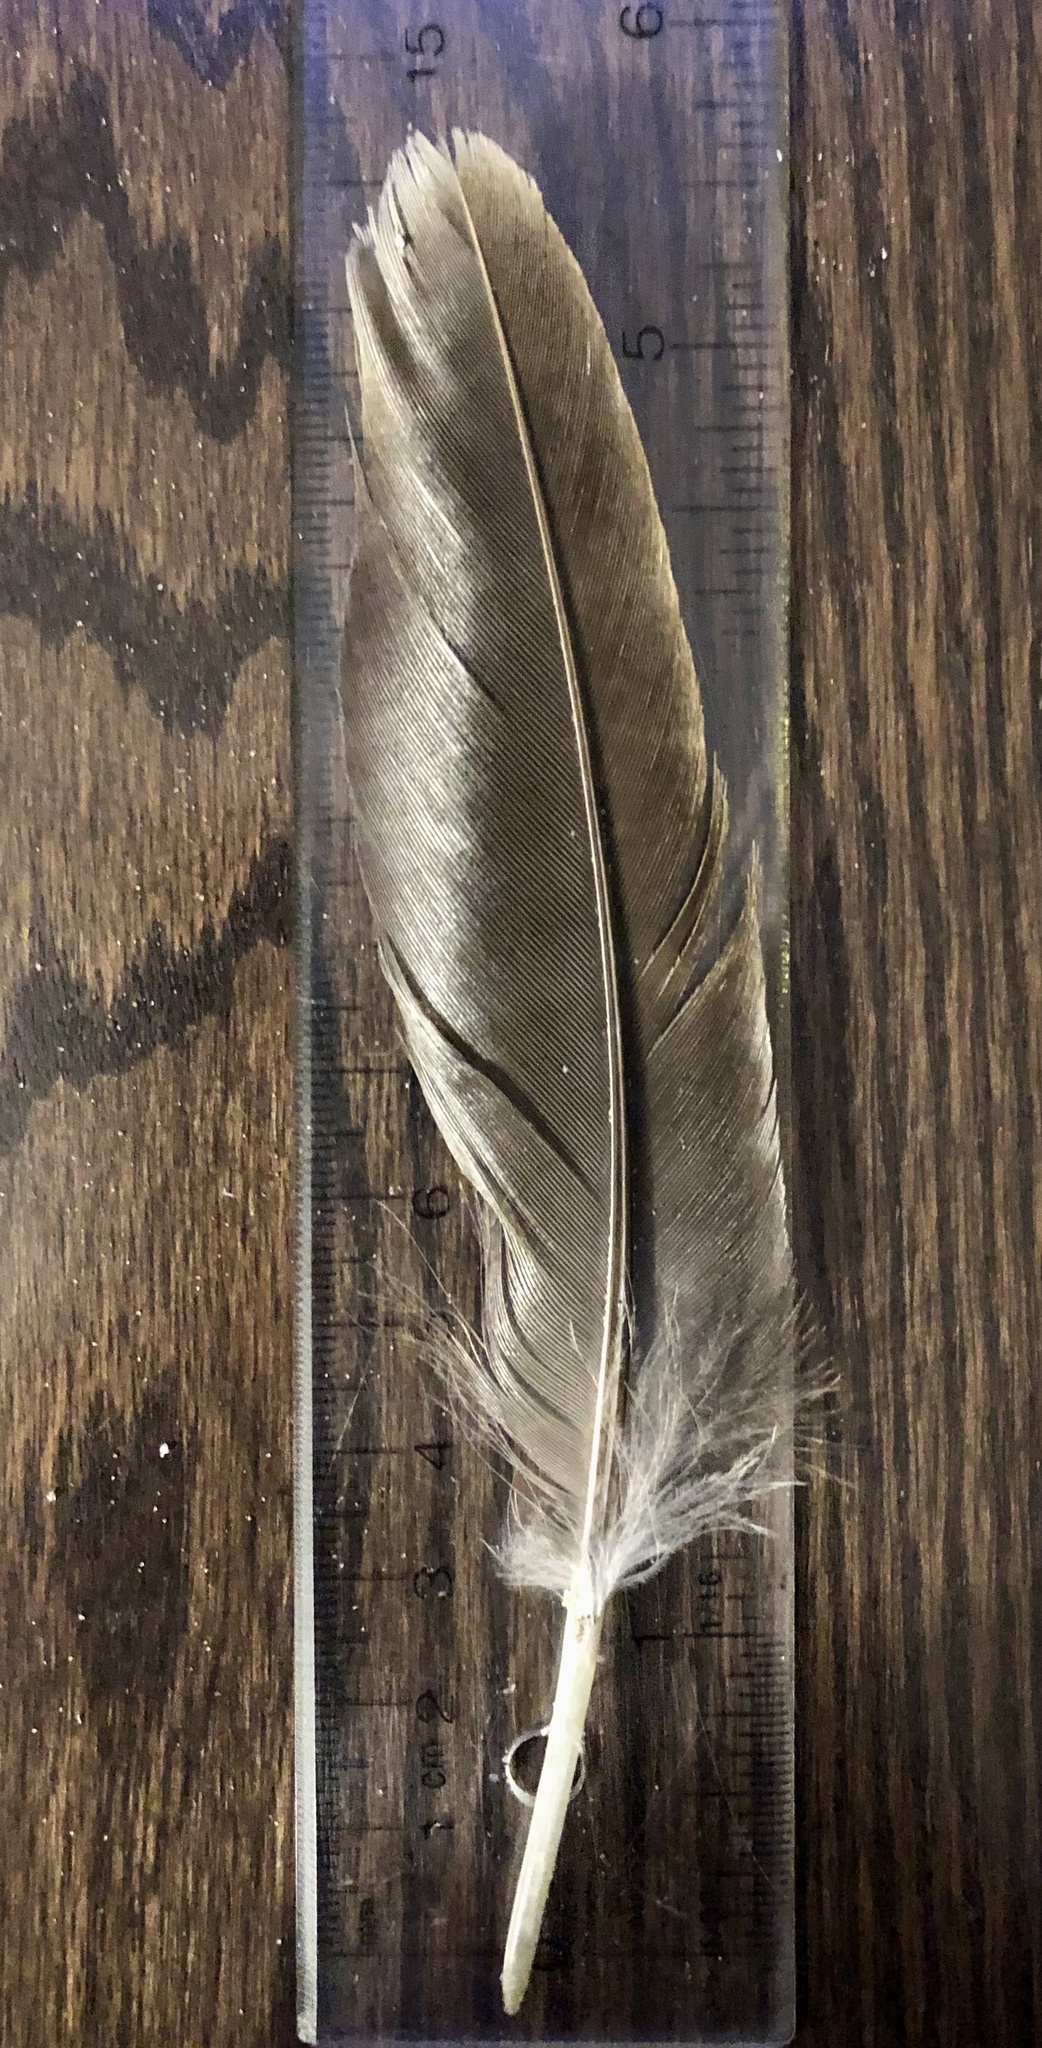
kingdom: Animalia
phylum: Chordata
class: Aves
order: Anseriformes
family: Anatidae
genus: Branta
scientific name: Branta canadensis
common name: Canada goose
